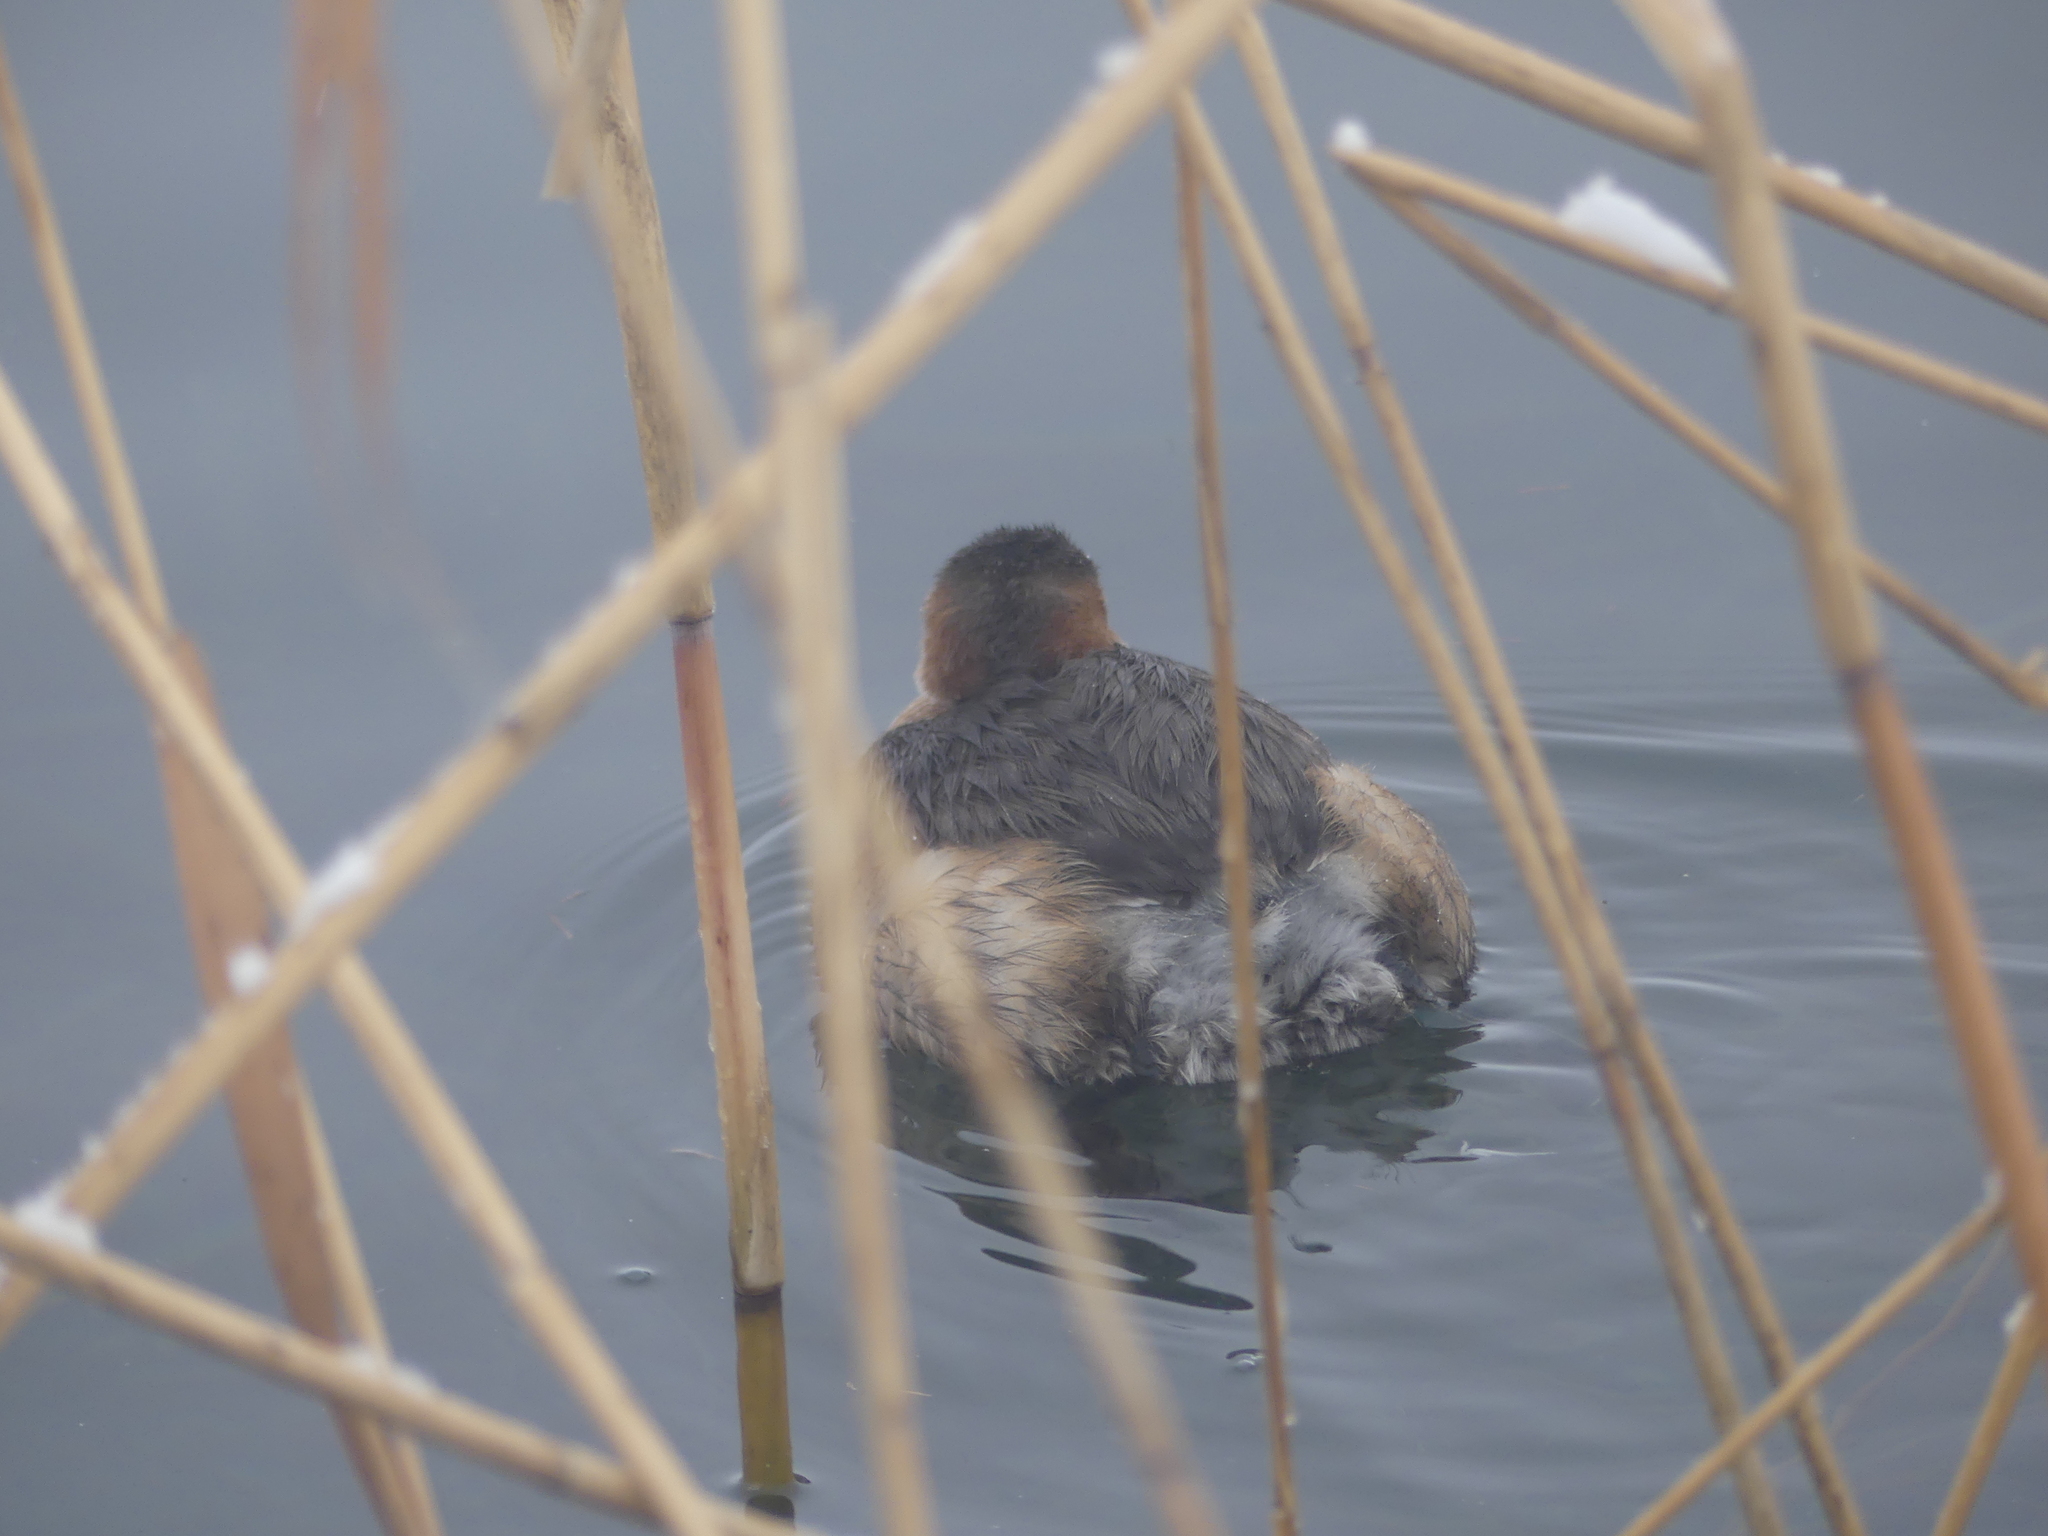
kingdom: Animalia
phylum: Chordata
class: Aves
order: Podicipediformes
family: Podicipedidae
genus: Tachybaptus
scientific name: Tachybaptus ruficollis
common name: Little grebe
